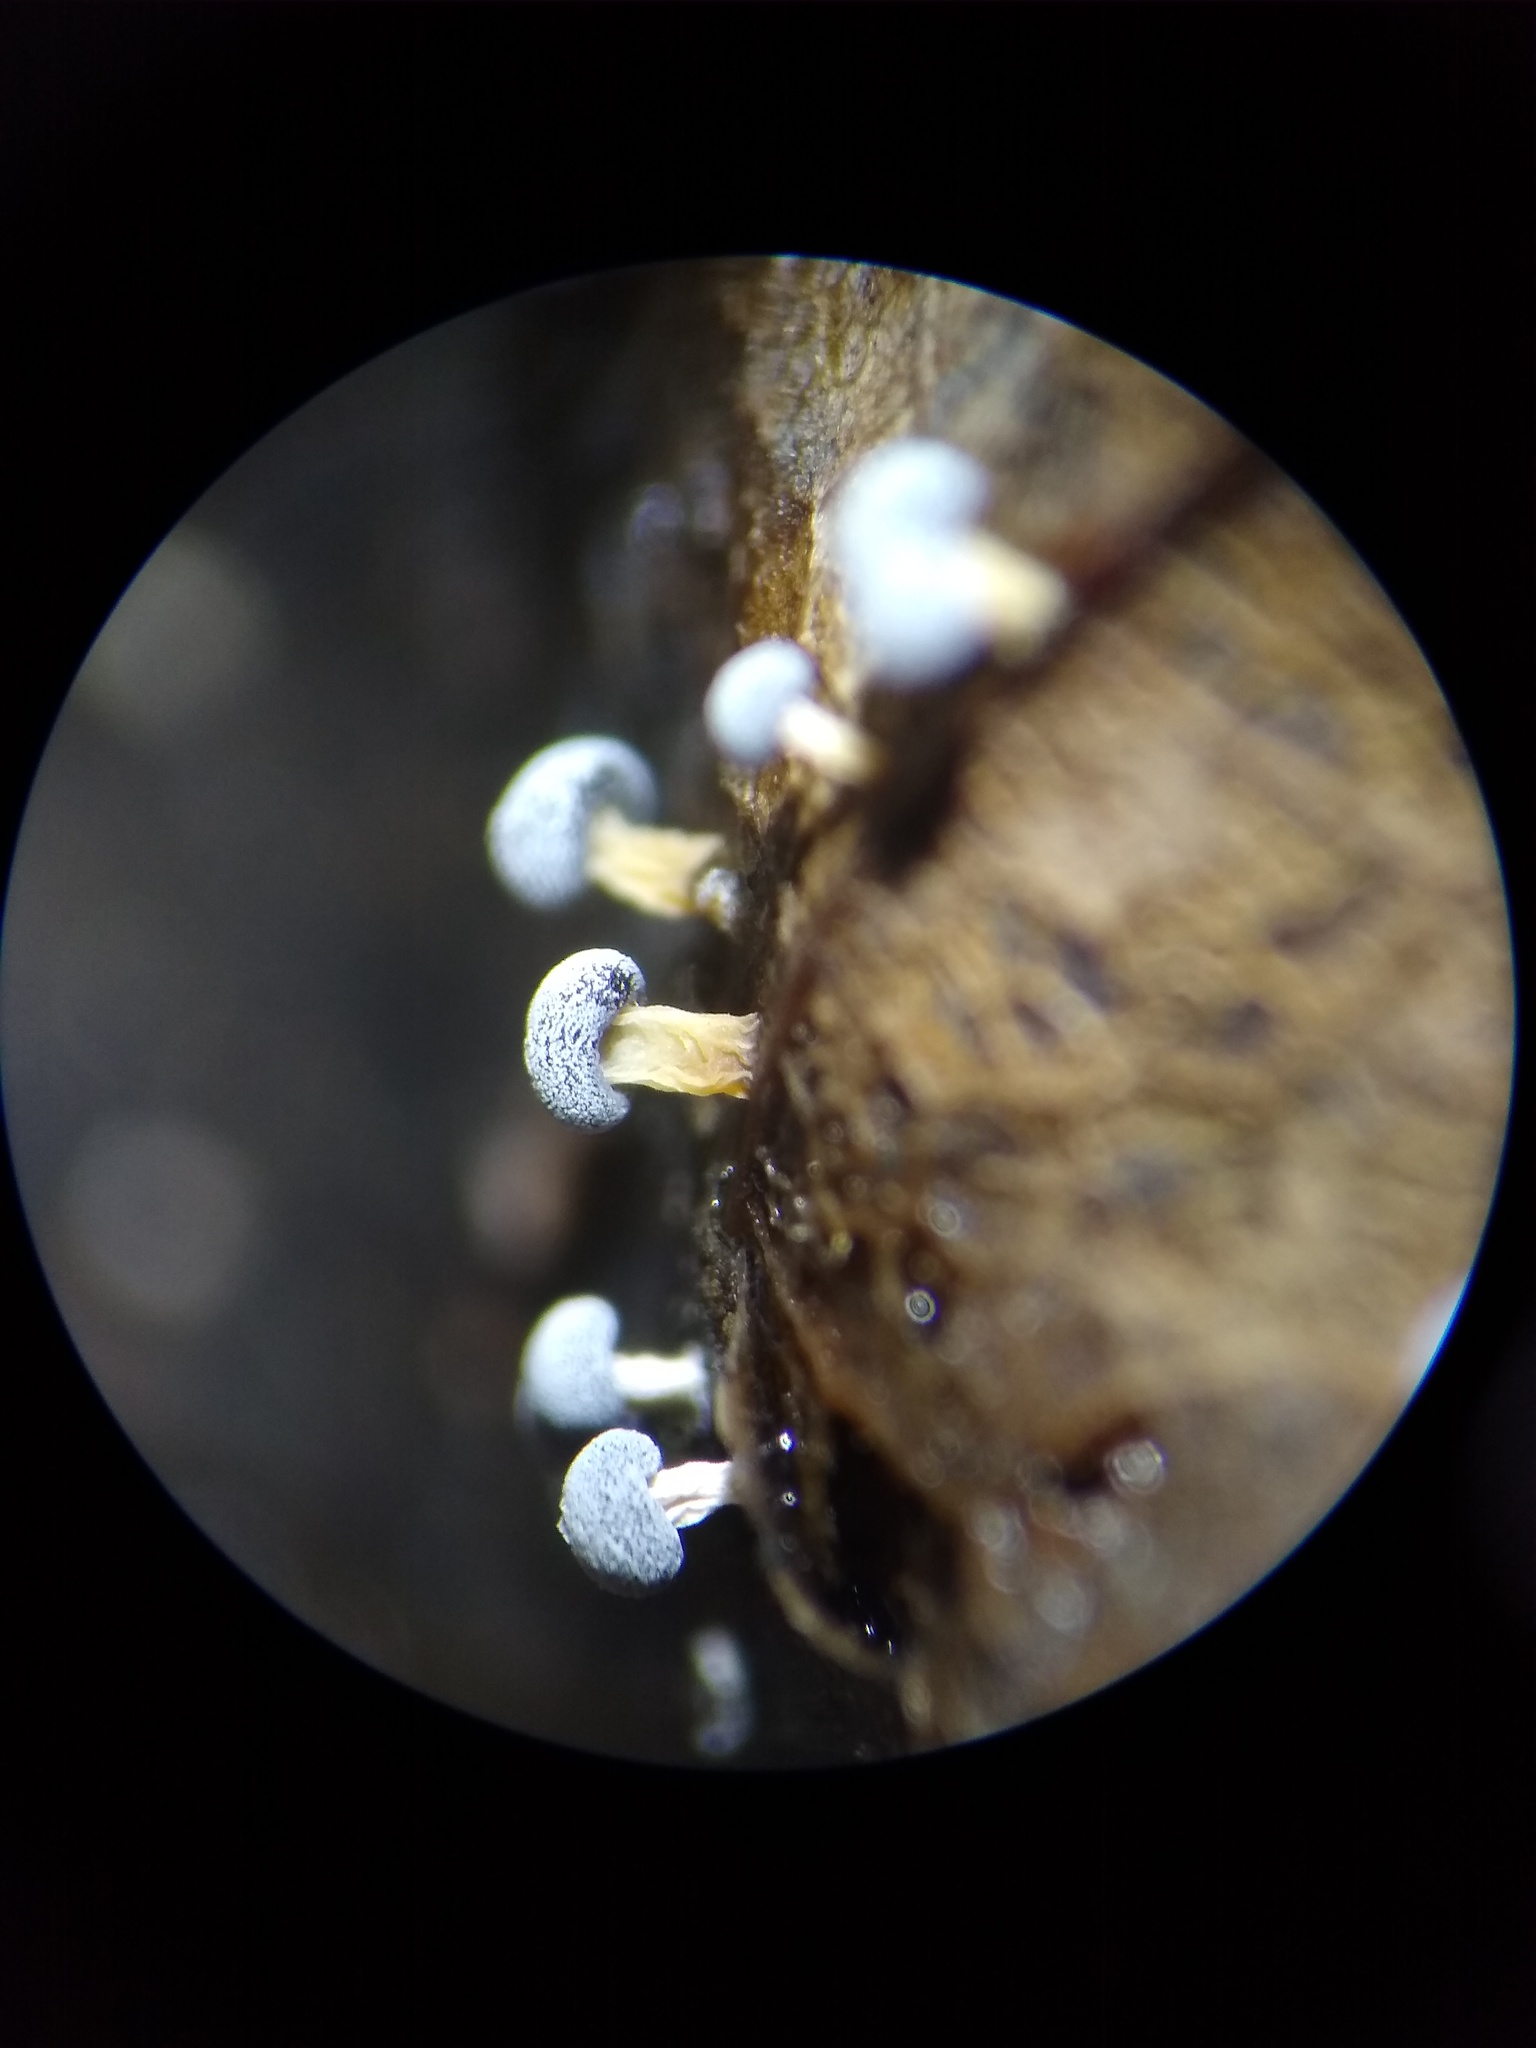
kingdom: Protozoa
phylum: Mycetozoa
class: Myxomycetes
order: Physarales
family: Didymiaceae
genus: Didymium
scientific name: Didymium squamulosum
